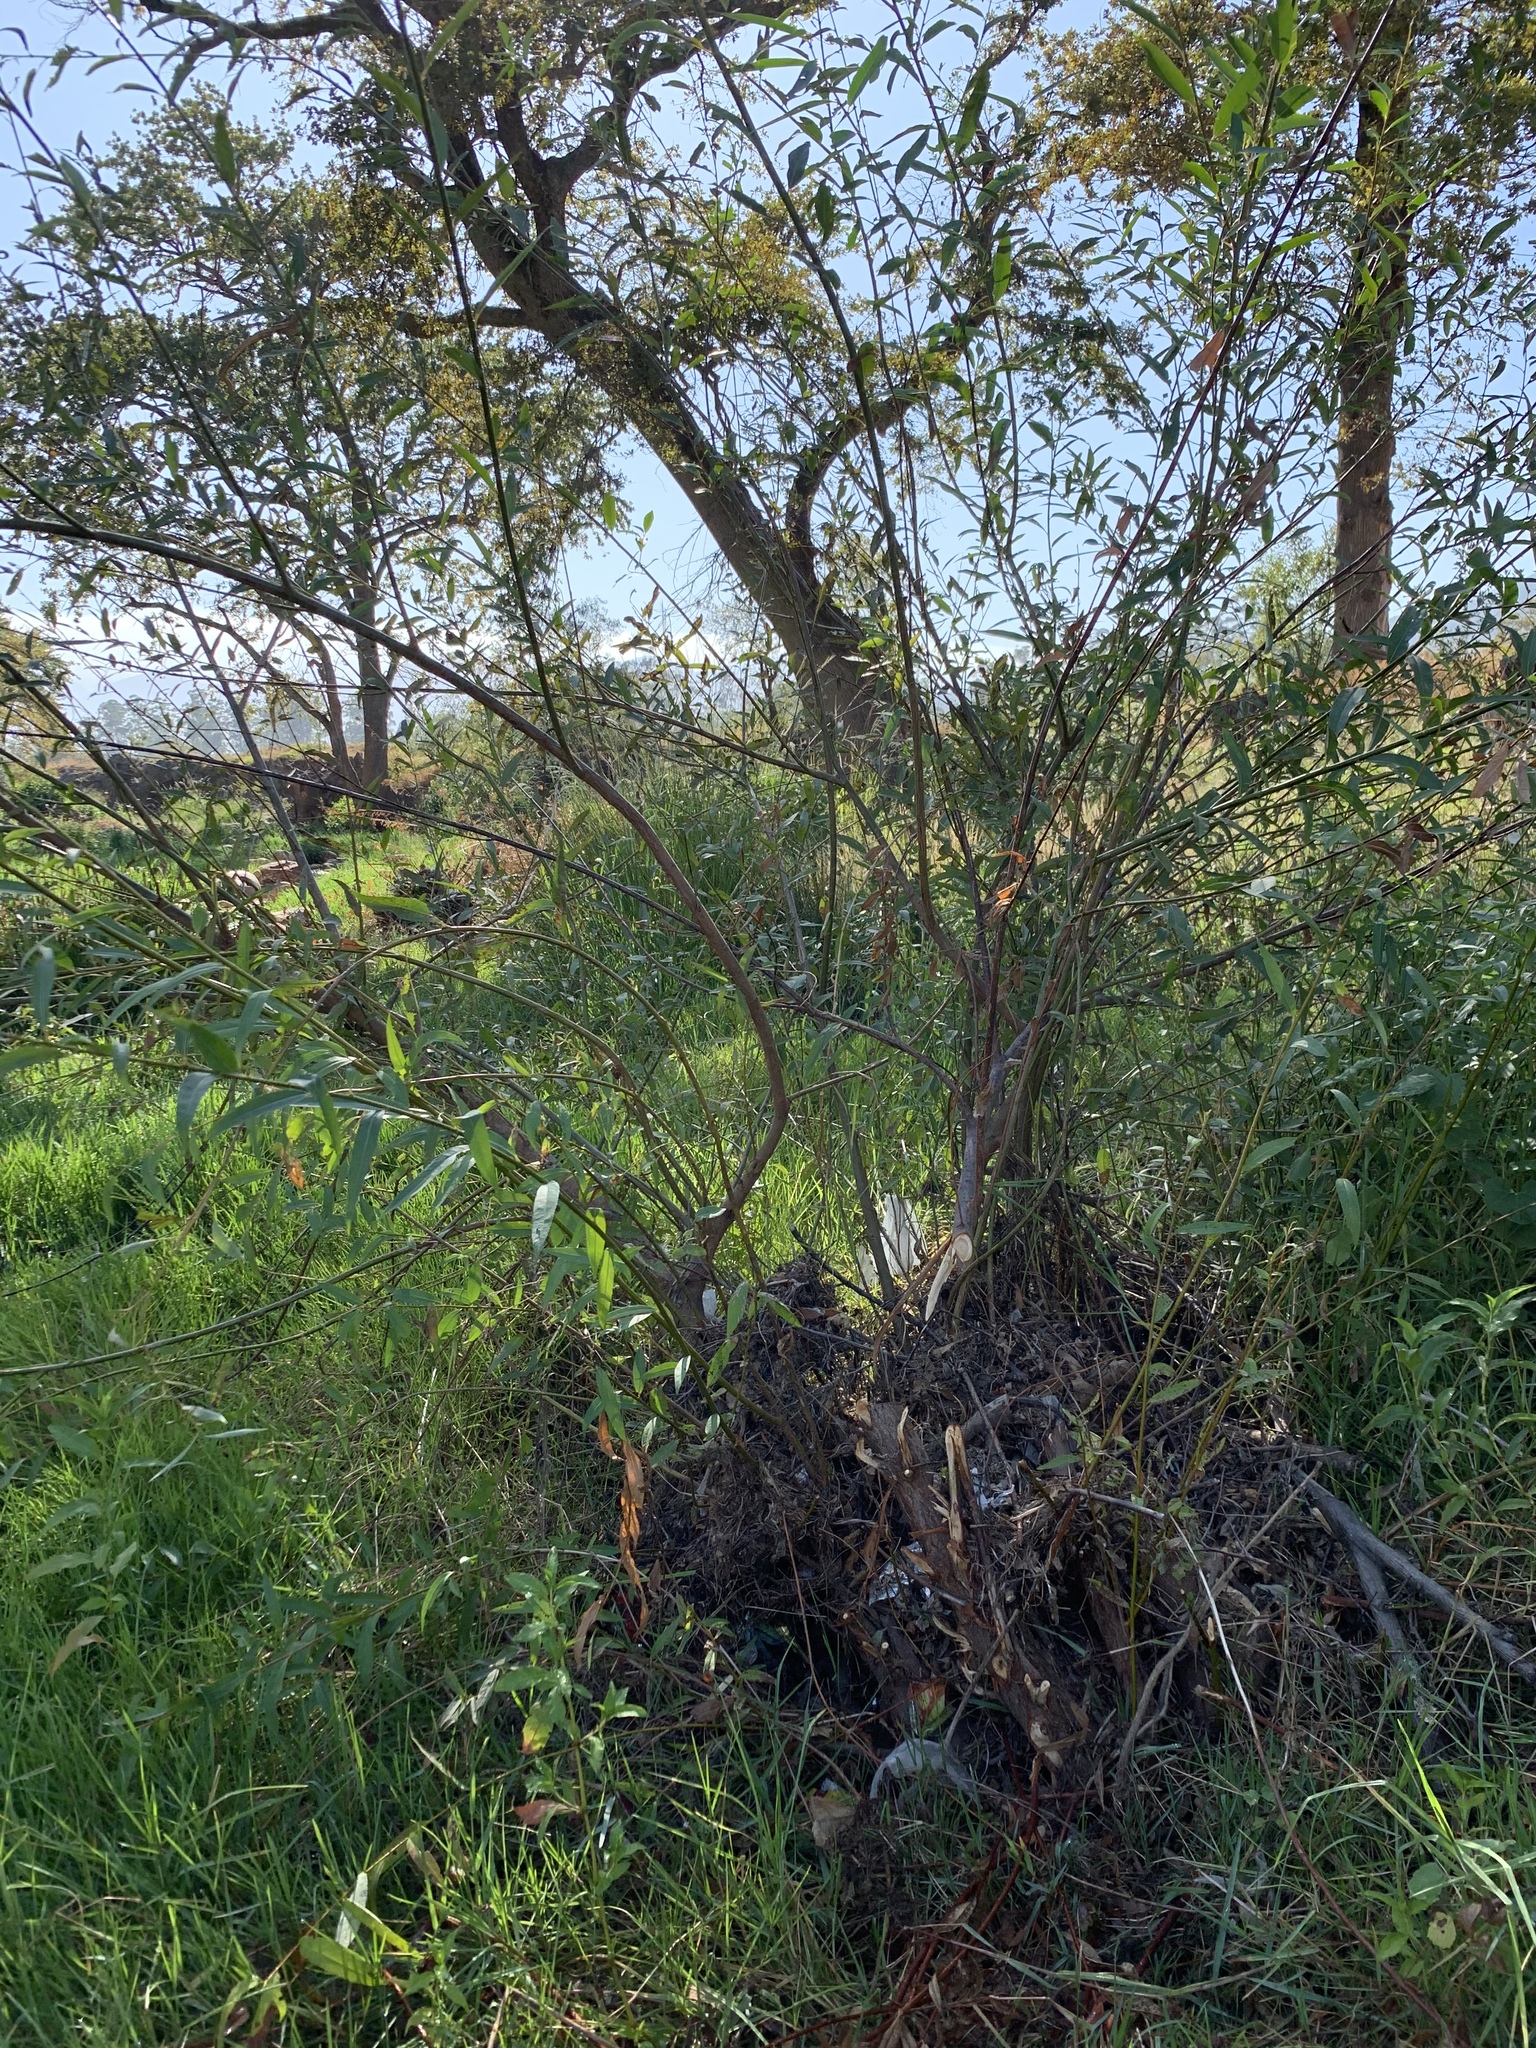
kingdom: Plantae
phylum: Tracheophyta
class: Magnoliopsida
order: Malpighiales
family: Salicaceae
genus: Salix
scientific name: Salix mucronata
